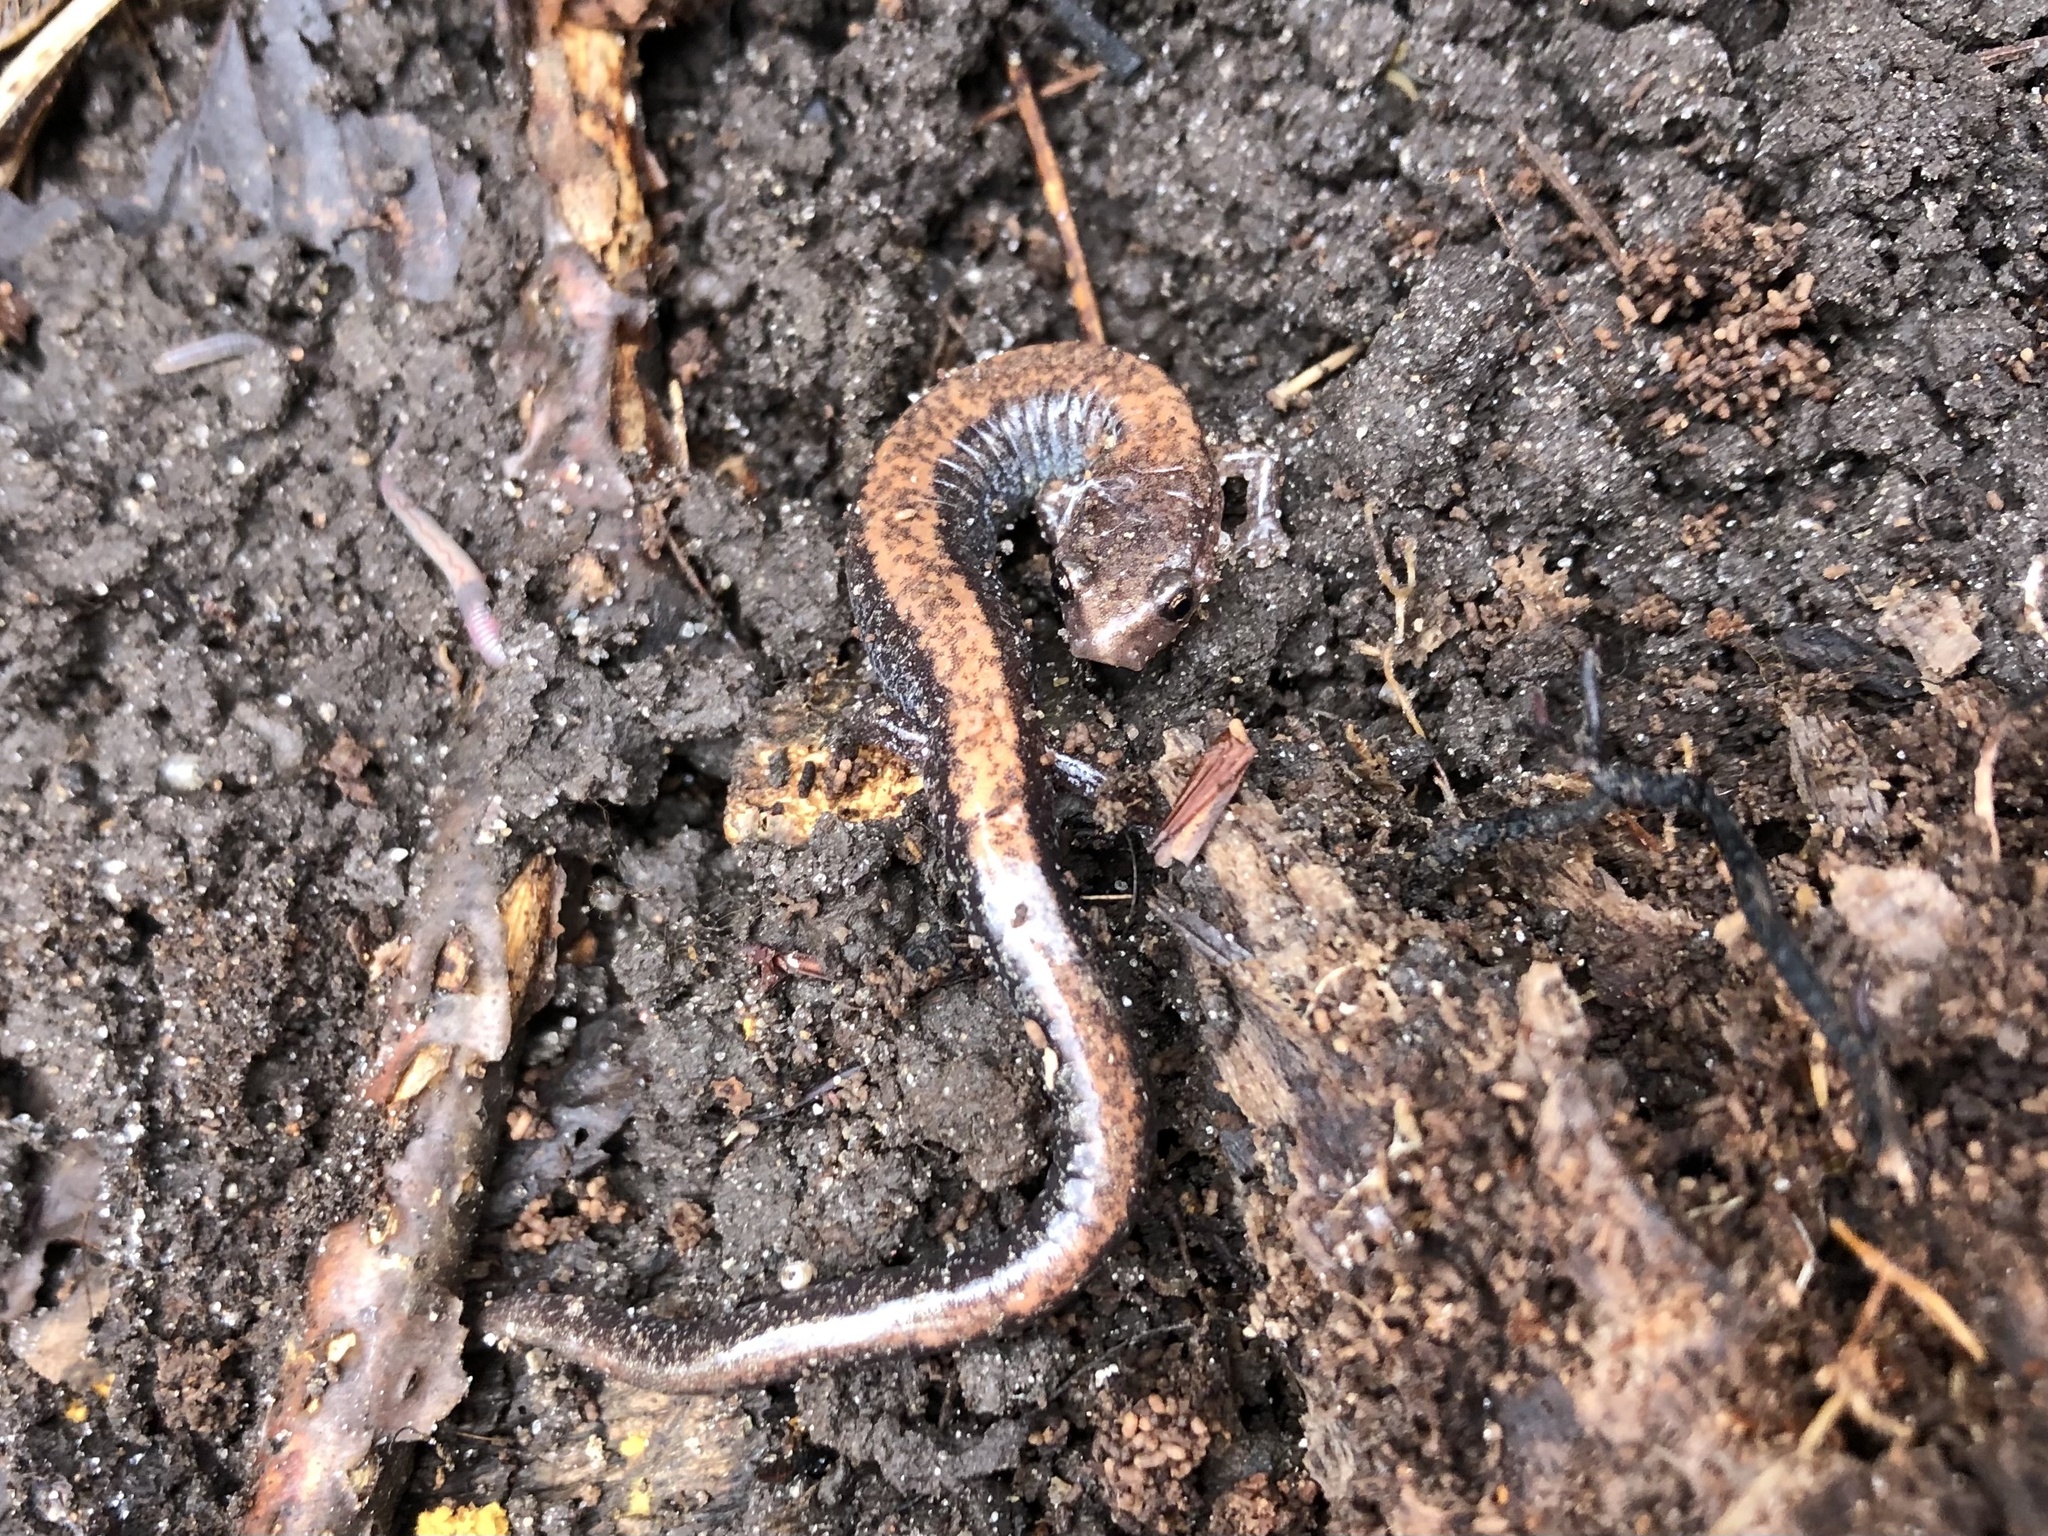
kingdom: Animalia
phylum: Chordata
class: Amphibia
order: Caudata
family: Plethodontidae
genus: Plethodon
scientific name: Plethodon cinereus
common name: Redback salamander
